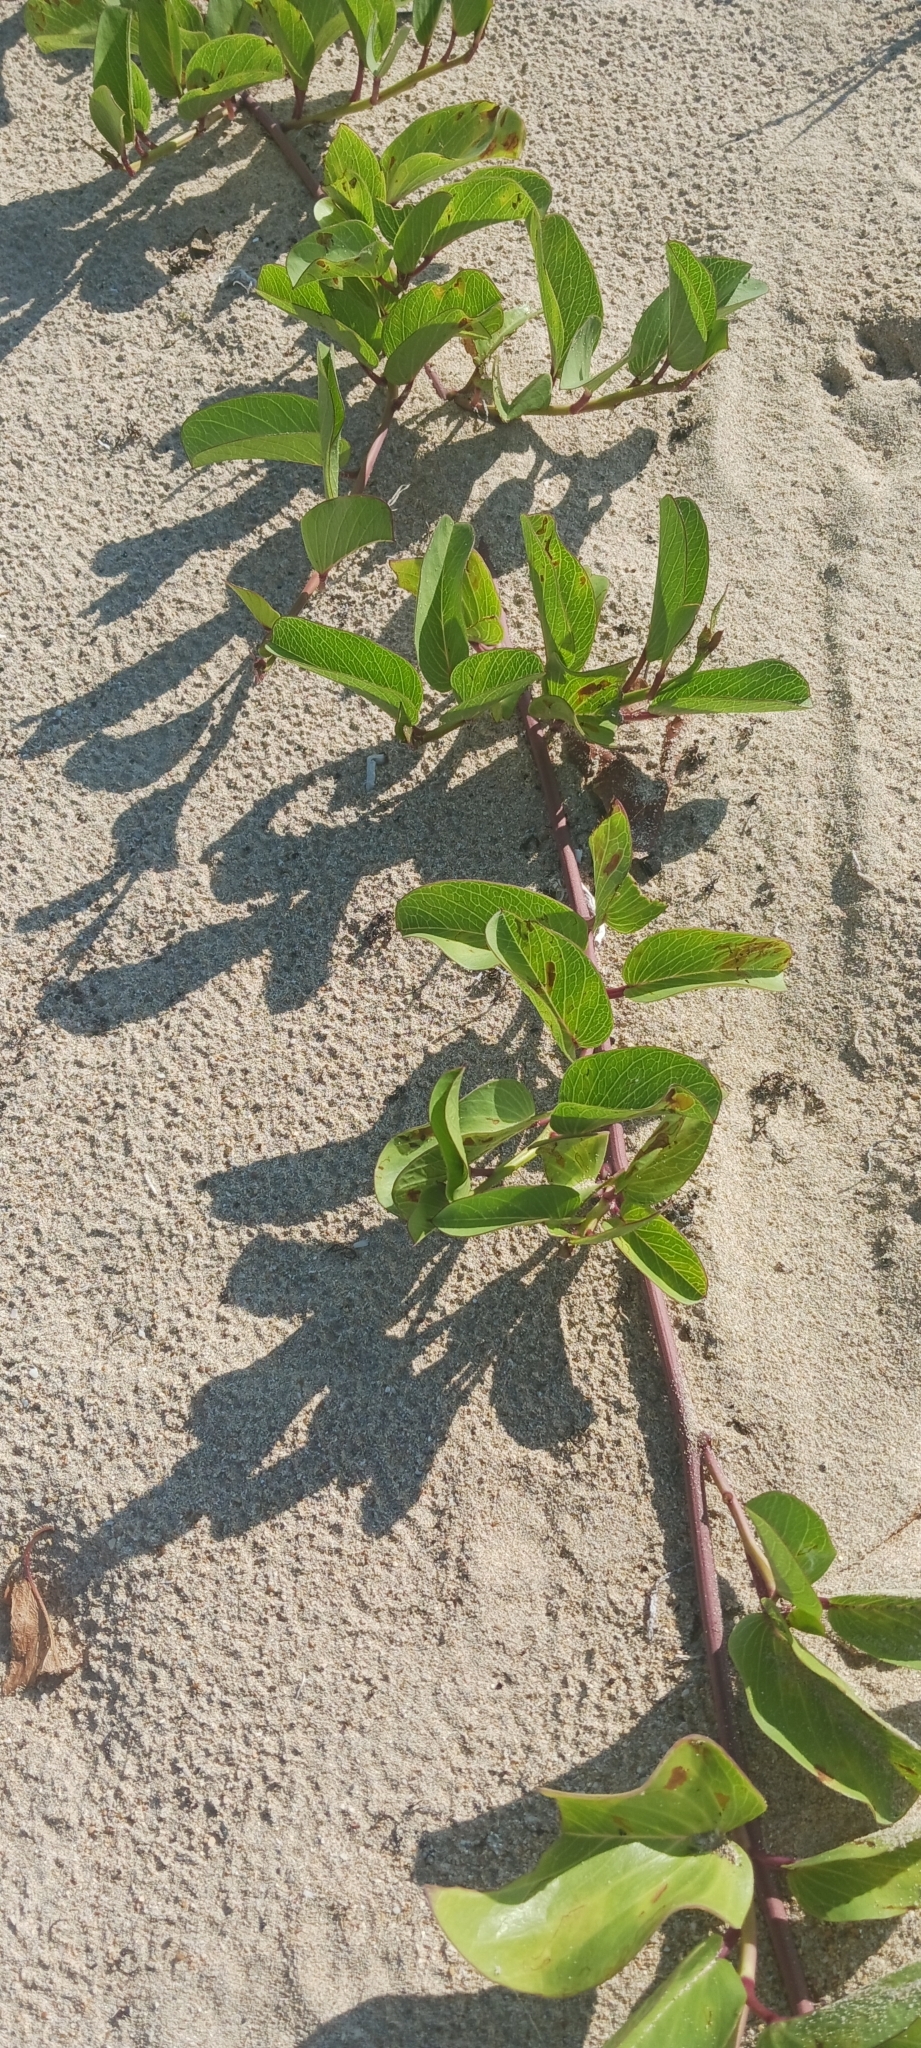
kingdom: Plantae
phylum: Tracheophyta
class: Magnoliopsida
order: Solanales
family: Convolvulaceae
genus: Ipomoea
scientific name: Ipomoea pes-caprae
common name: Beach morning glory
